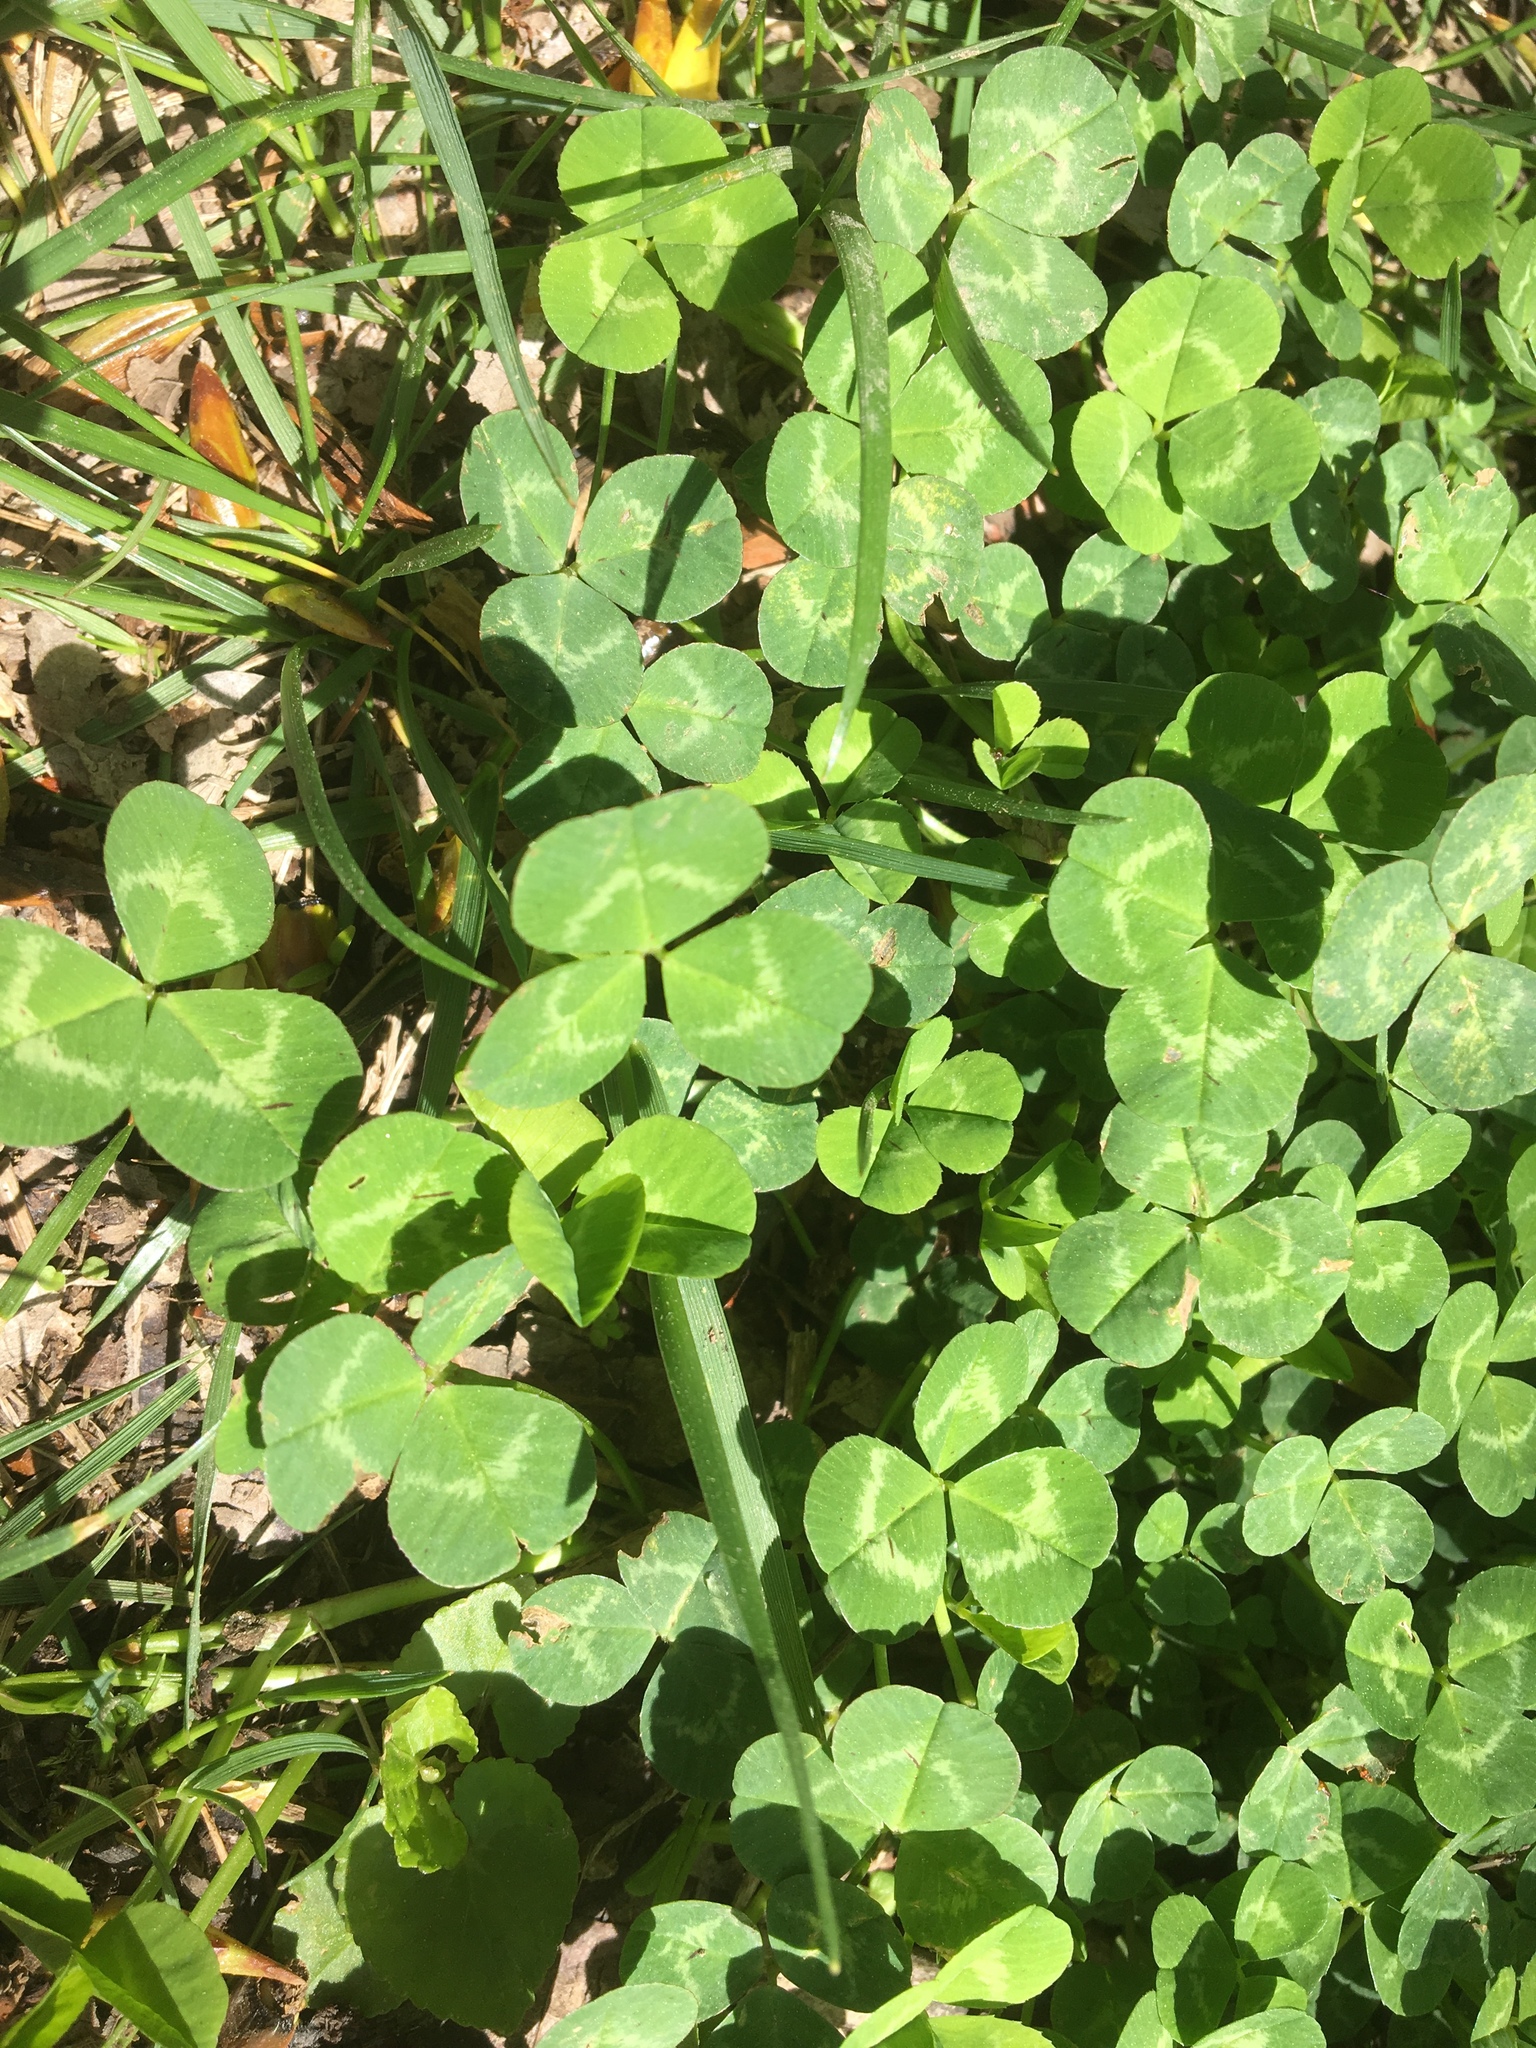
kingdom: Plantae
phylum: Tracheophyta
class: Magnoliopsida
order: Fabales
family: Fabaceae
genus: Trifolium
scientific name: Trifolium repens
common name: White clover
